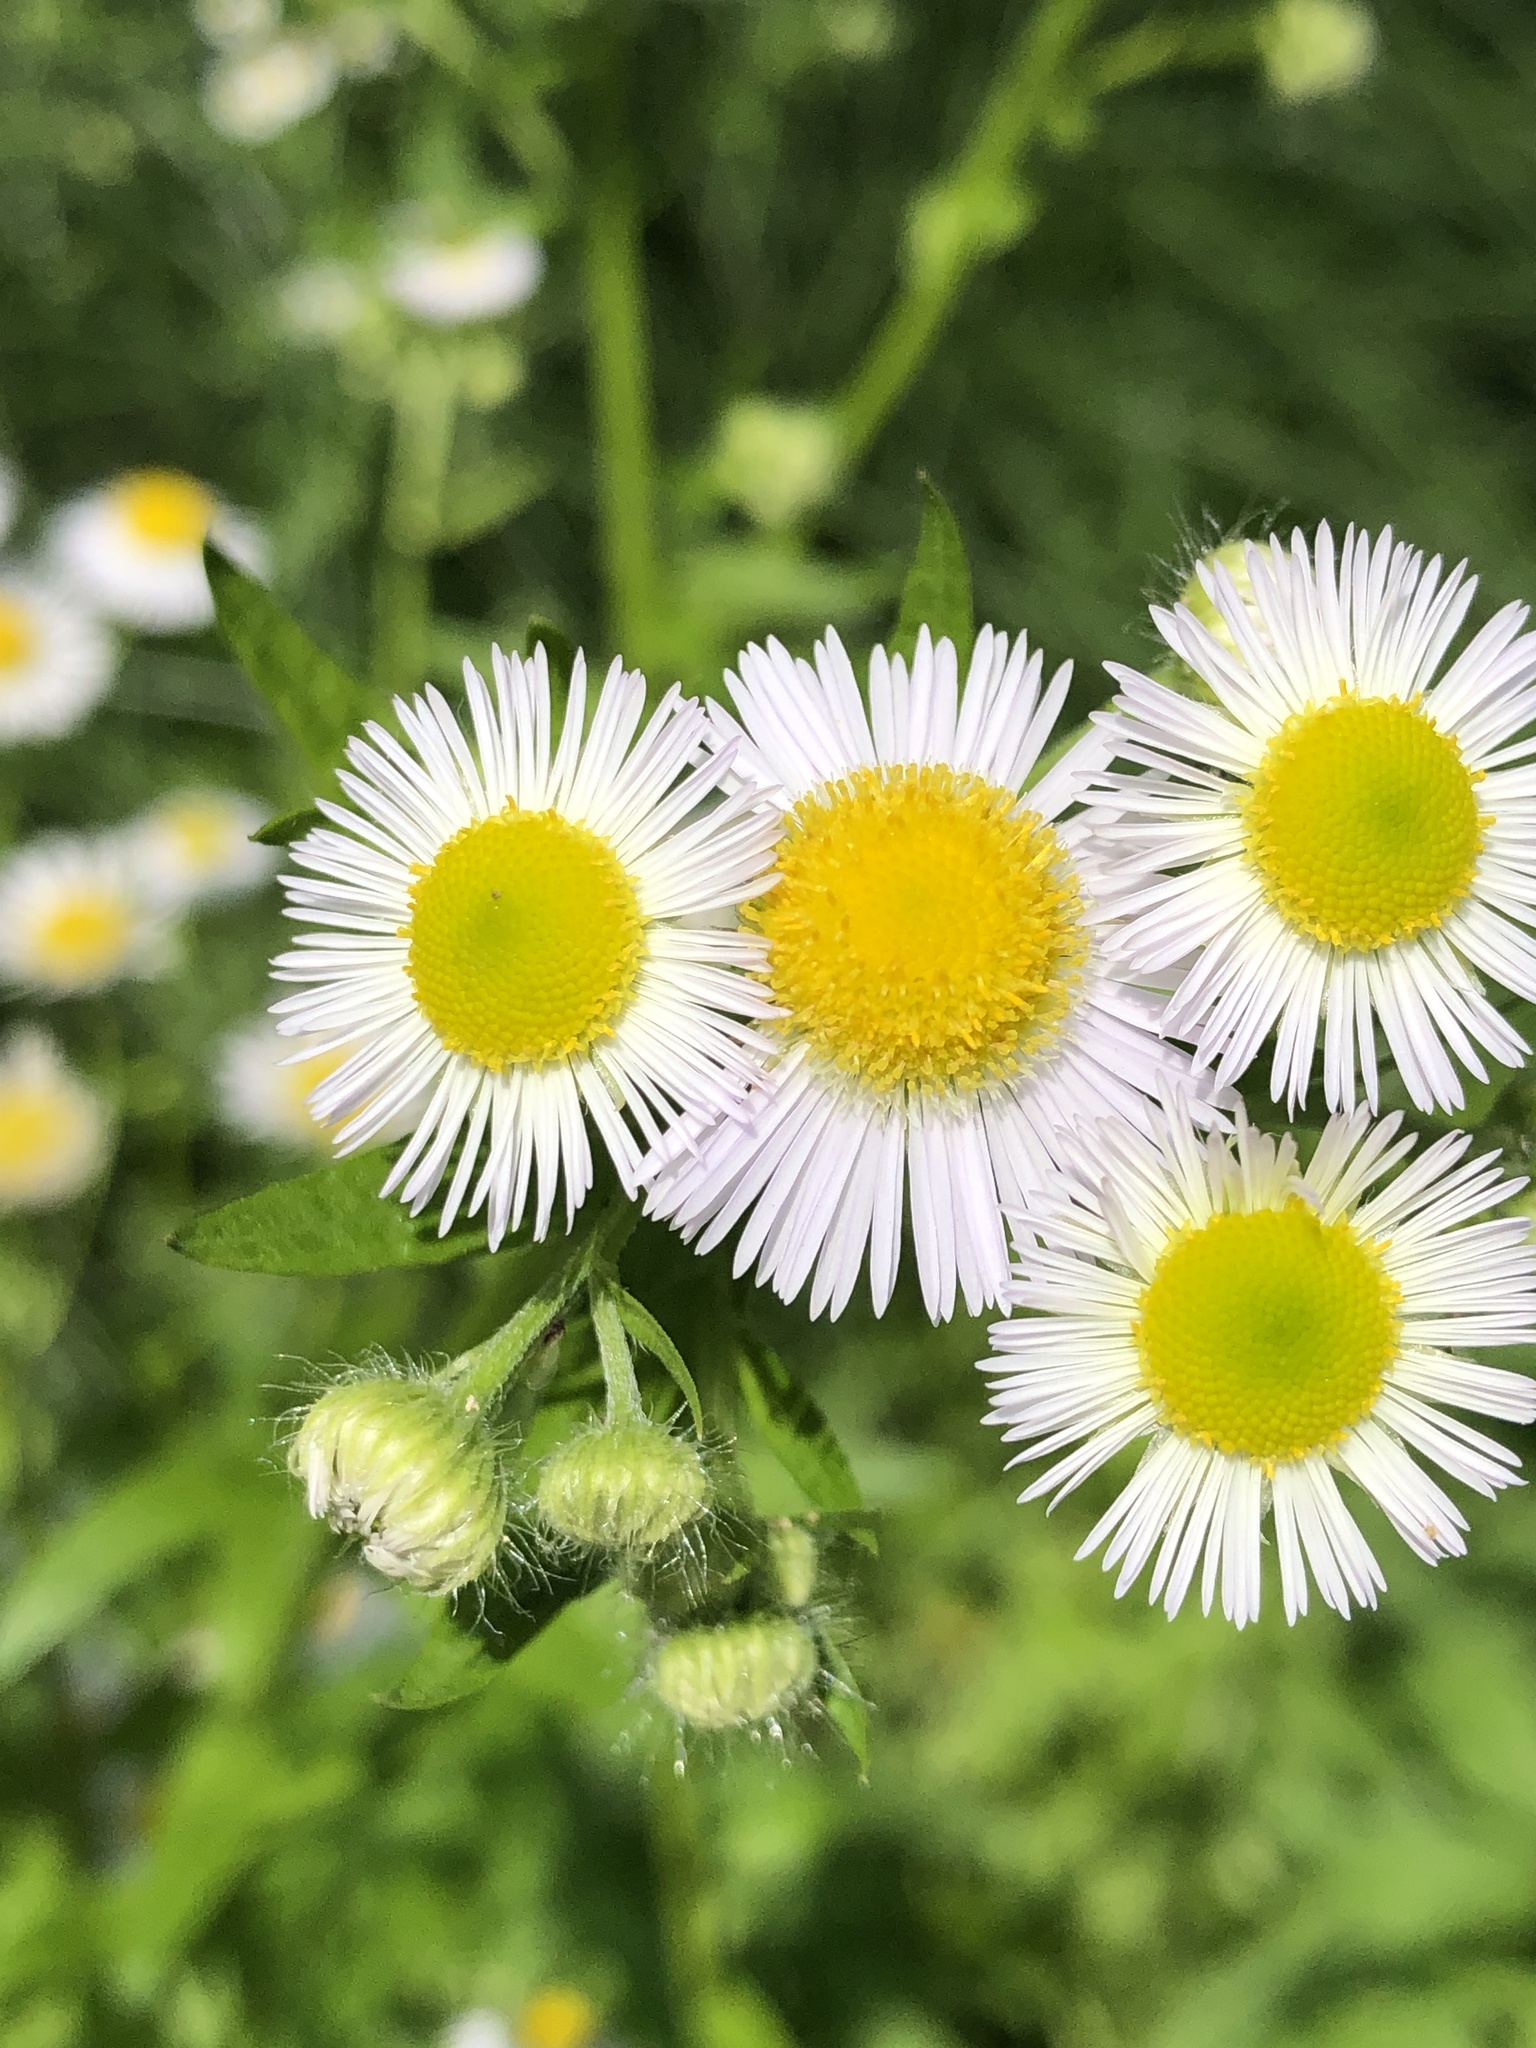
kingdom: Plantae
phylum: Tracheophyta
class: Magnoliopsida
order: Asterales
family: Asteraceae
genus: Erigeron
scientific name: Erigeron annuus
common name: Tall fleabane
